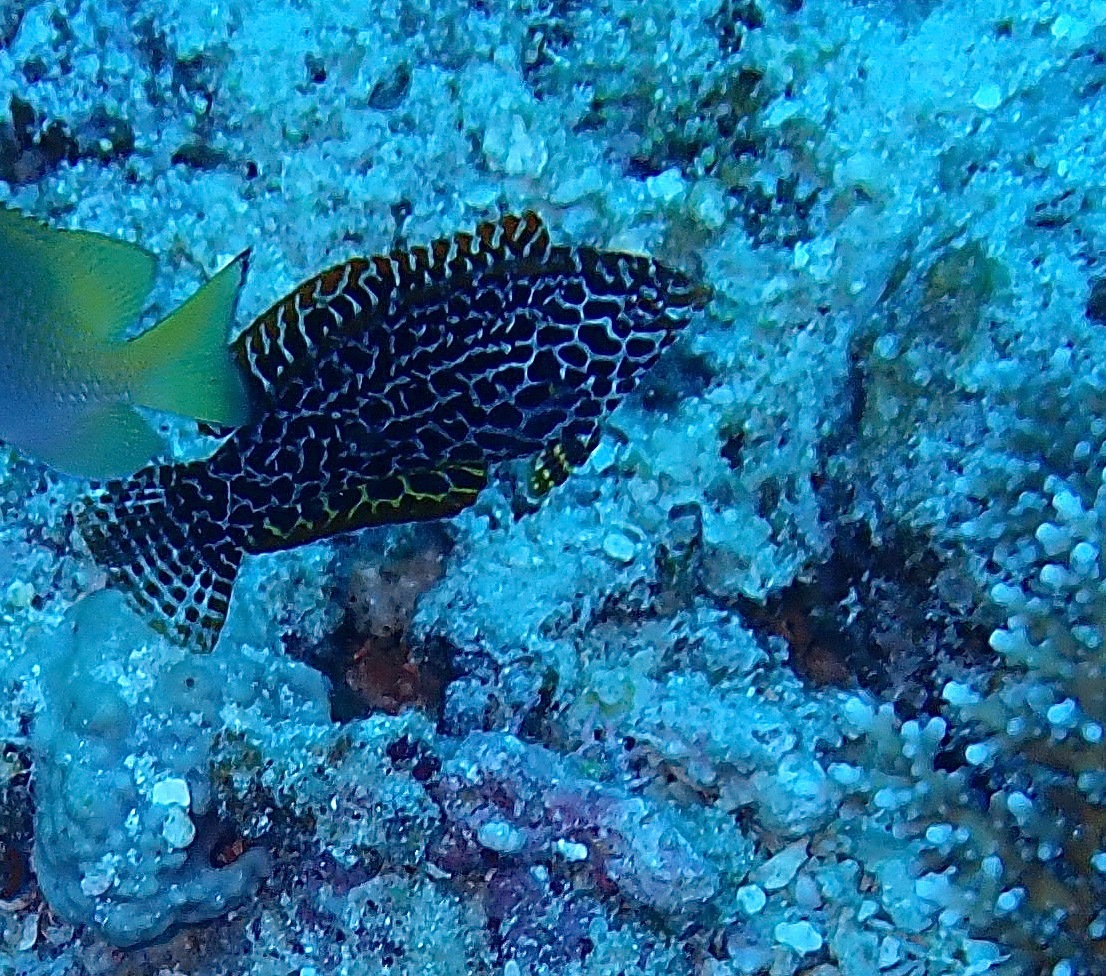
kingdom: Animalia
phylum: Chordata
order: Perciformes
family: Labridae
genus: Macropharyngodon
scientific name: Macropharyngodon meleagris
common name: Leopard wrasse
